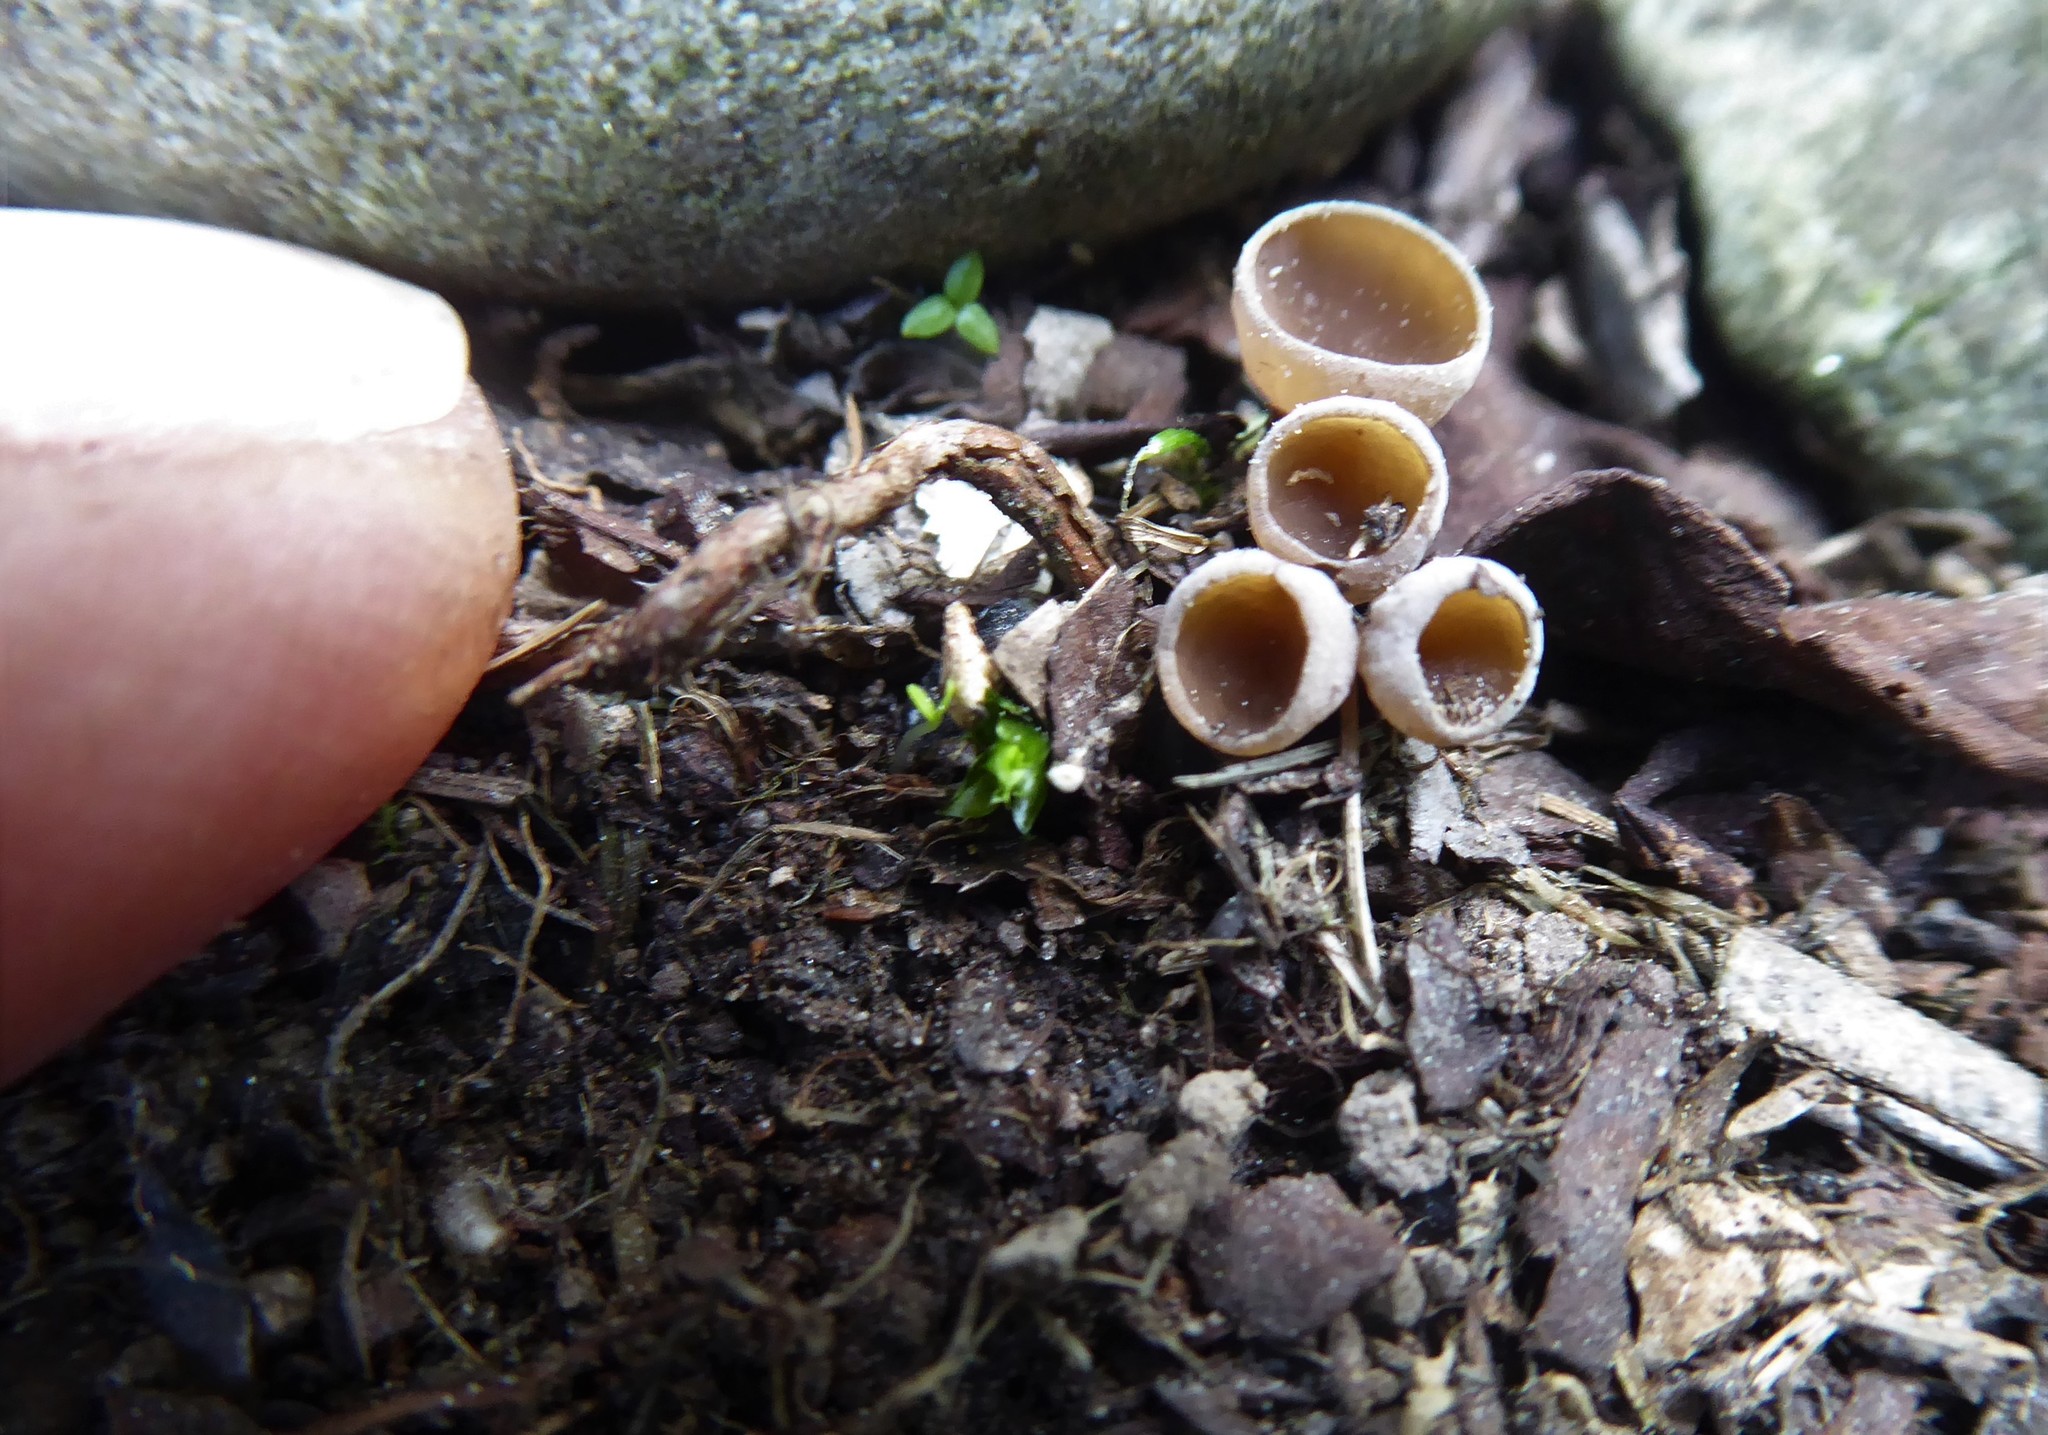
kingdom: Fungi
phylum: Ascomycota
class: Leotiomycetes
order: Helotiales
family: Sclerotiniaceae
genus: Ciborinia
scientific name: Ciborinia camelliae
